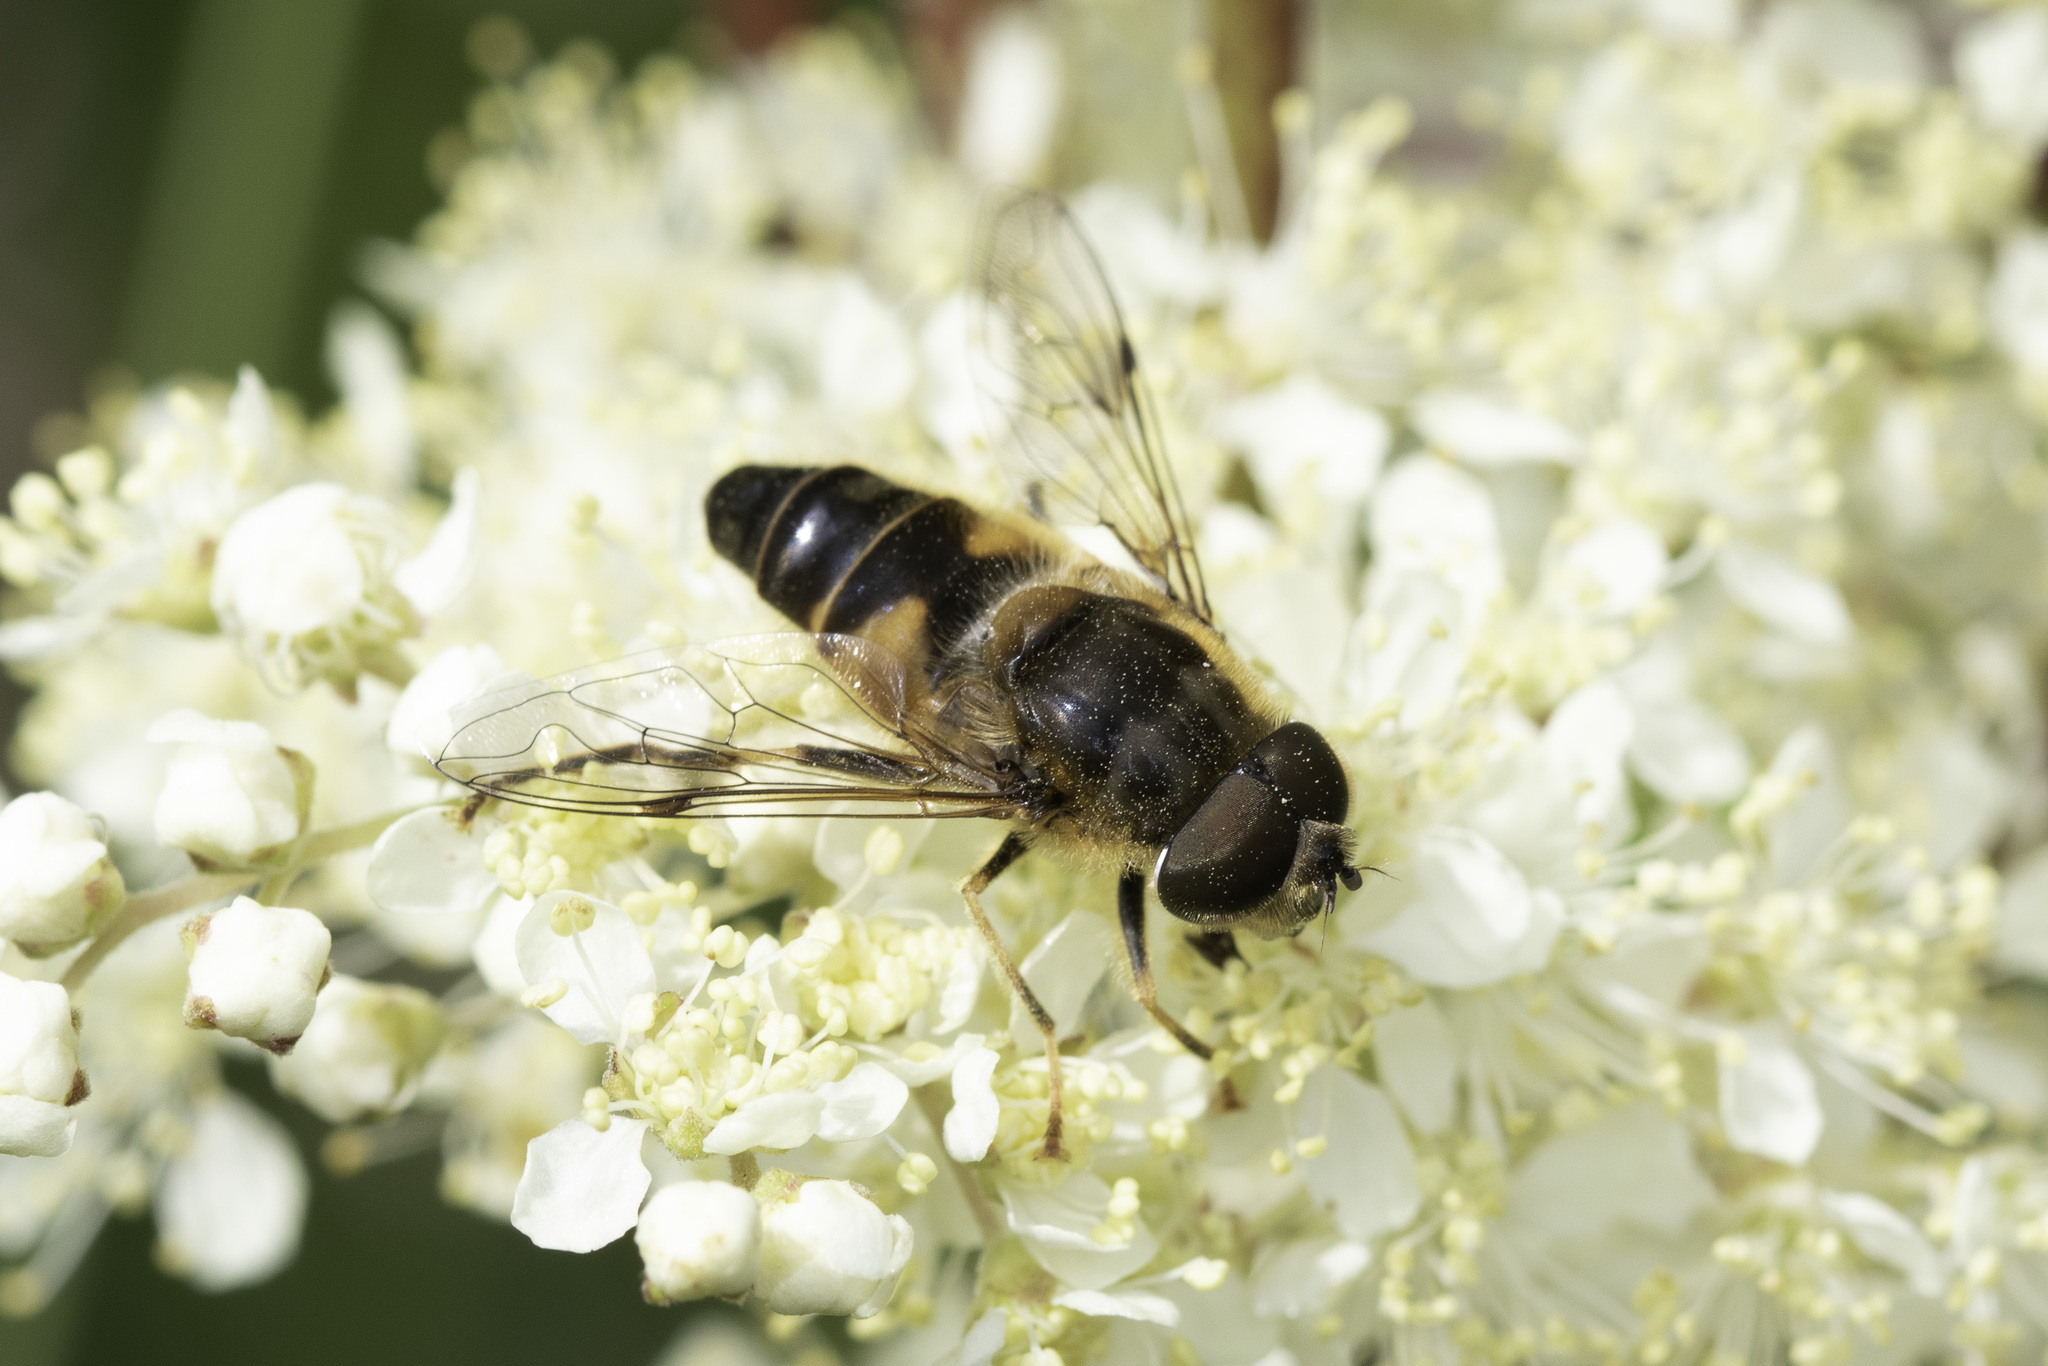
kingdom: Animalia
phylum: Arthropoda
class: Insecta
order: Diptera
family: Syrphidae
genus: Eristalis
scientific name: Eristalis pertinax
